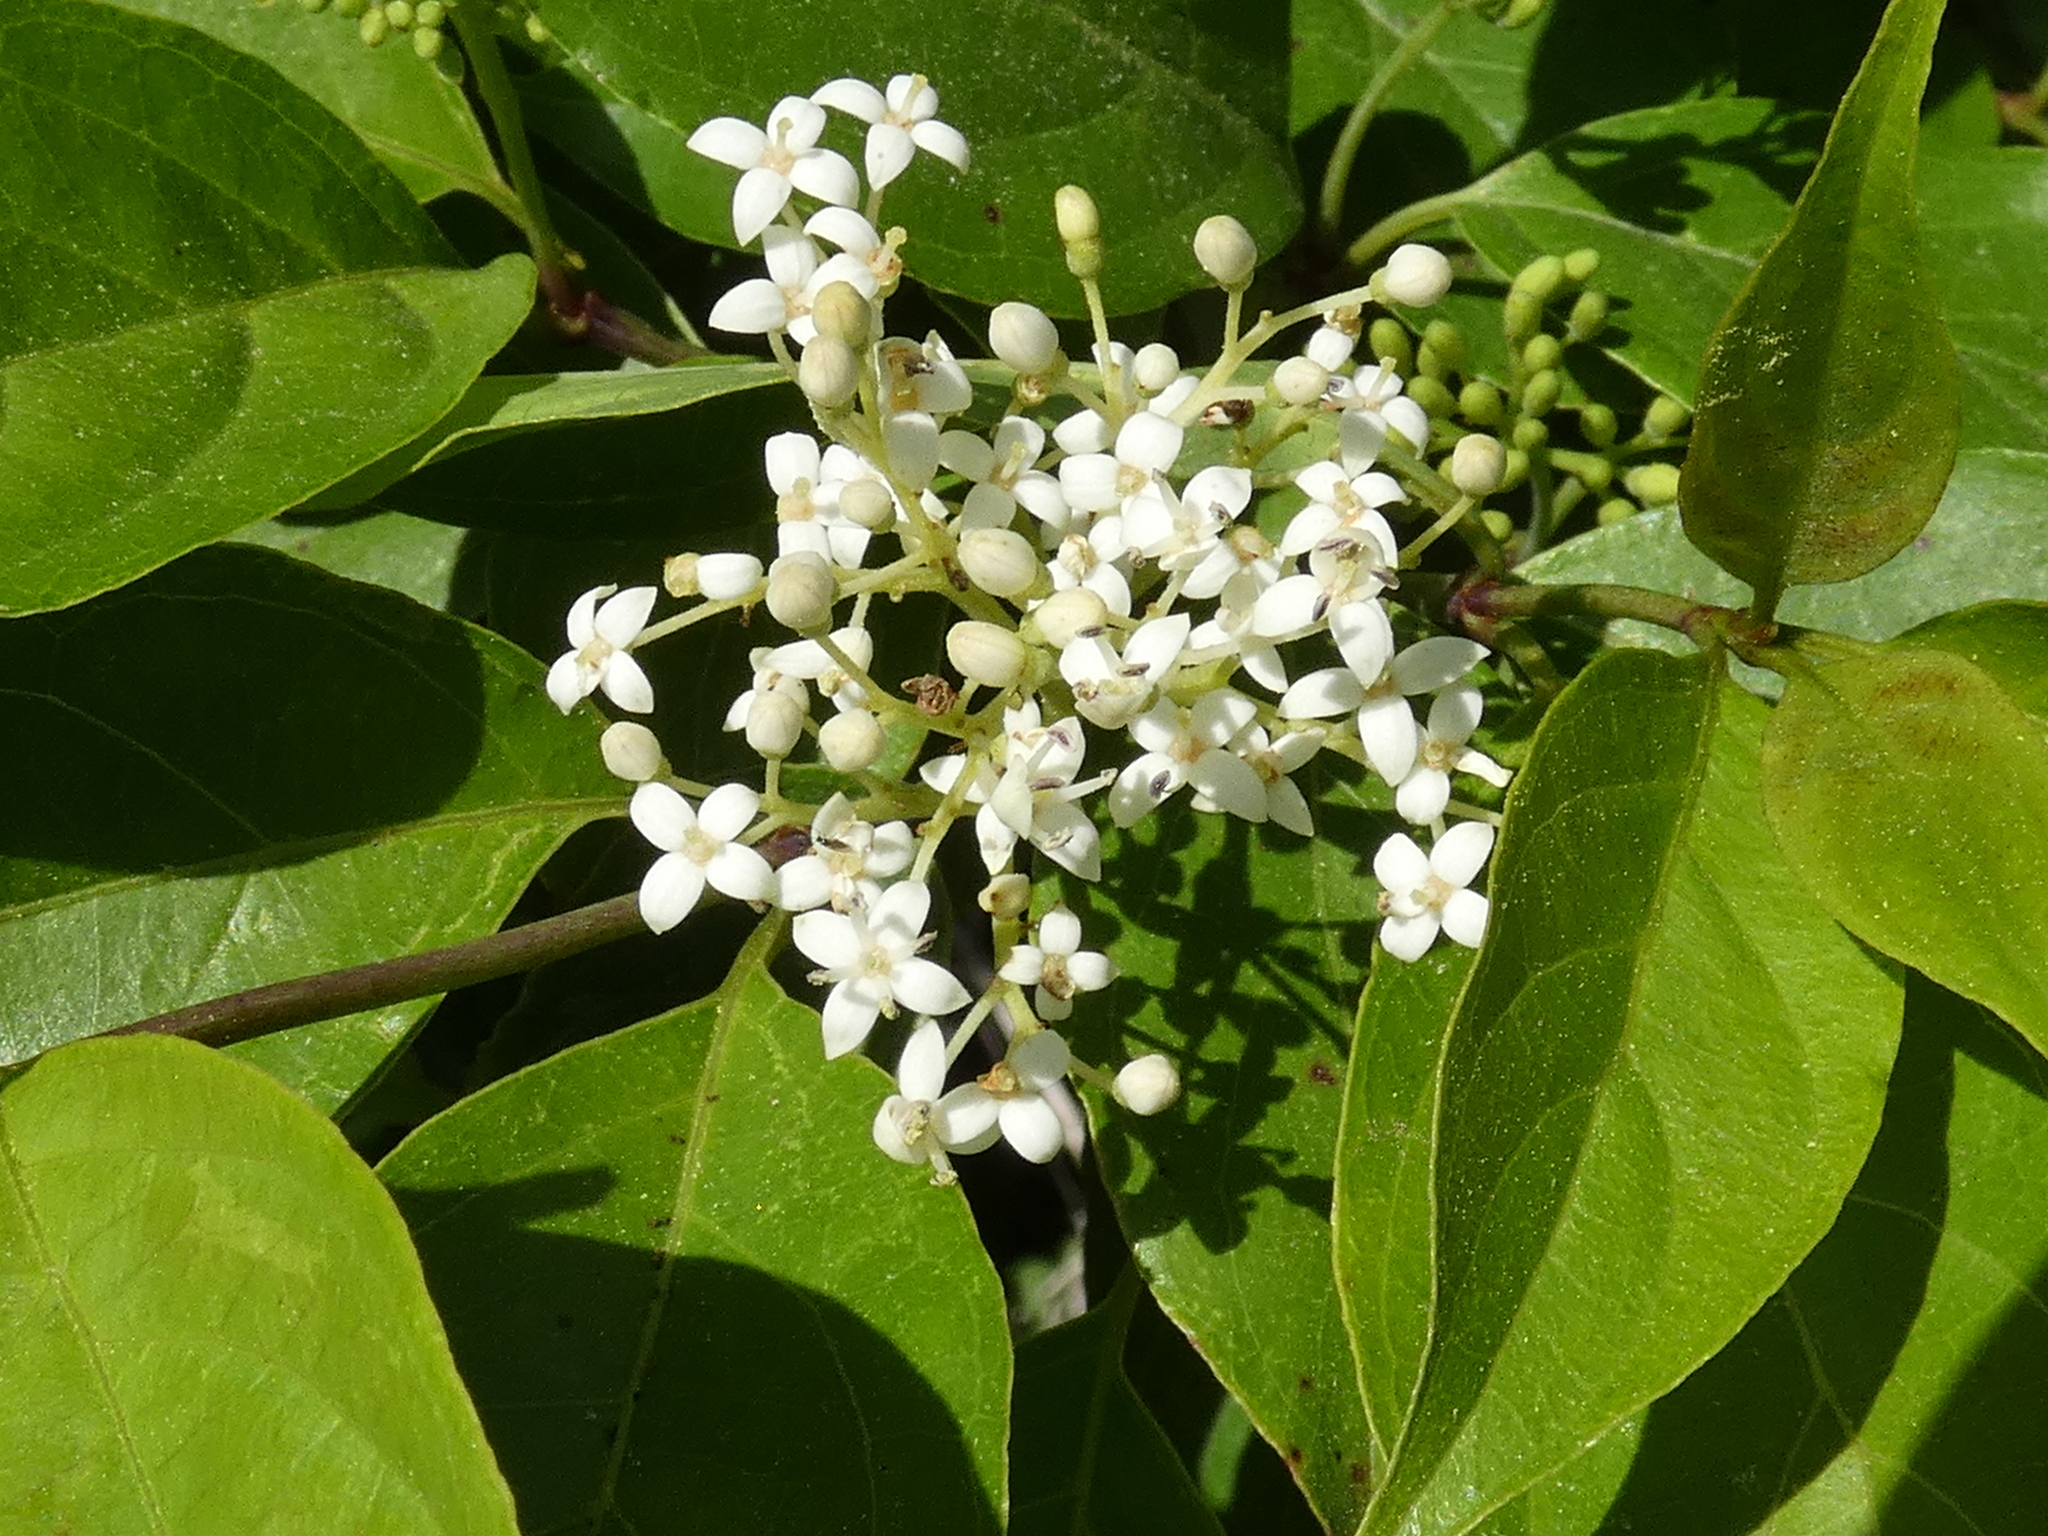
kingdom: Plantae
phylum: Tracheophyta
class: Magnoliopsida
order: Cornales
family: Cornaceae
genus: Cornus
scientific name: Cornus foemina
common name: Swamp dogwood
